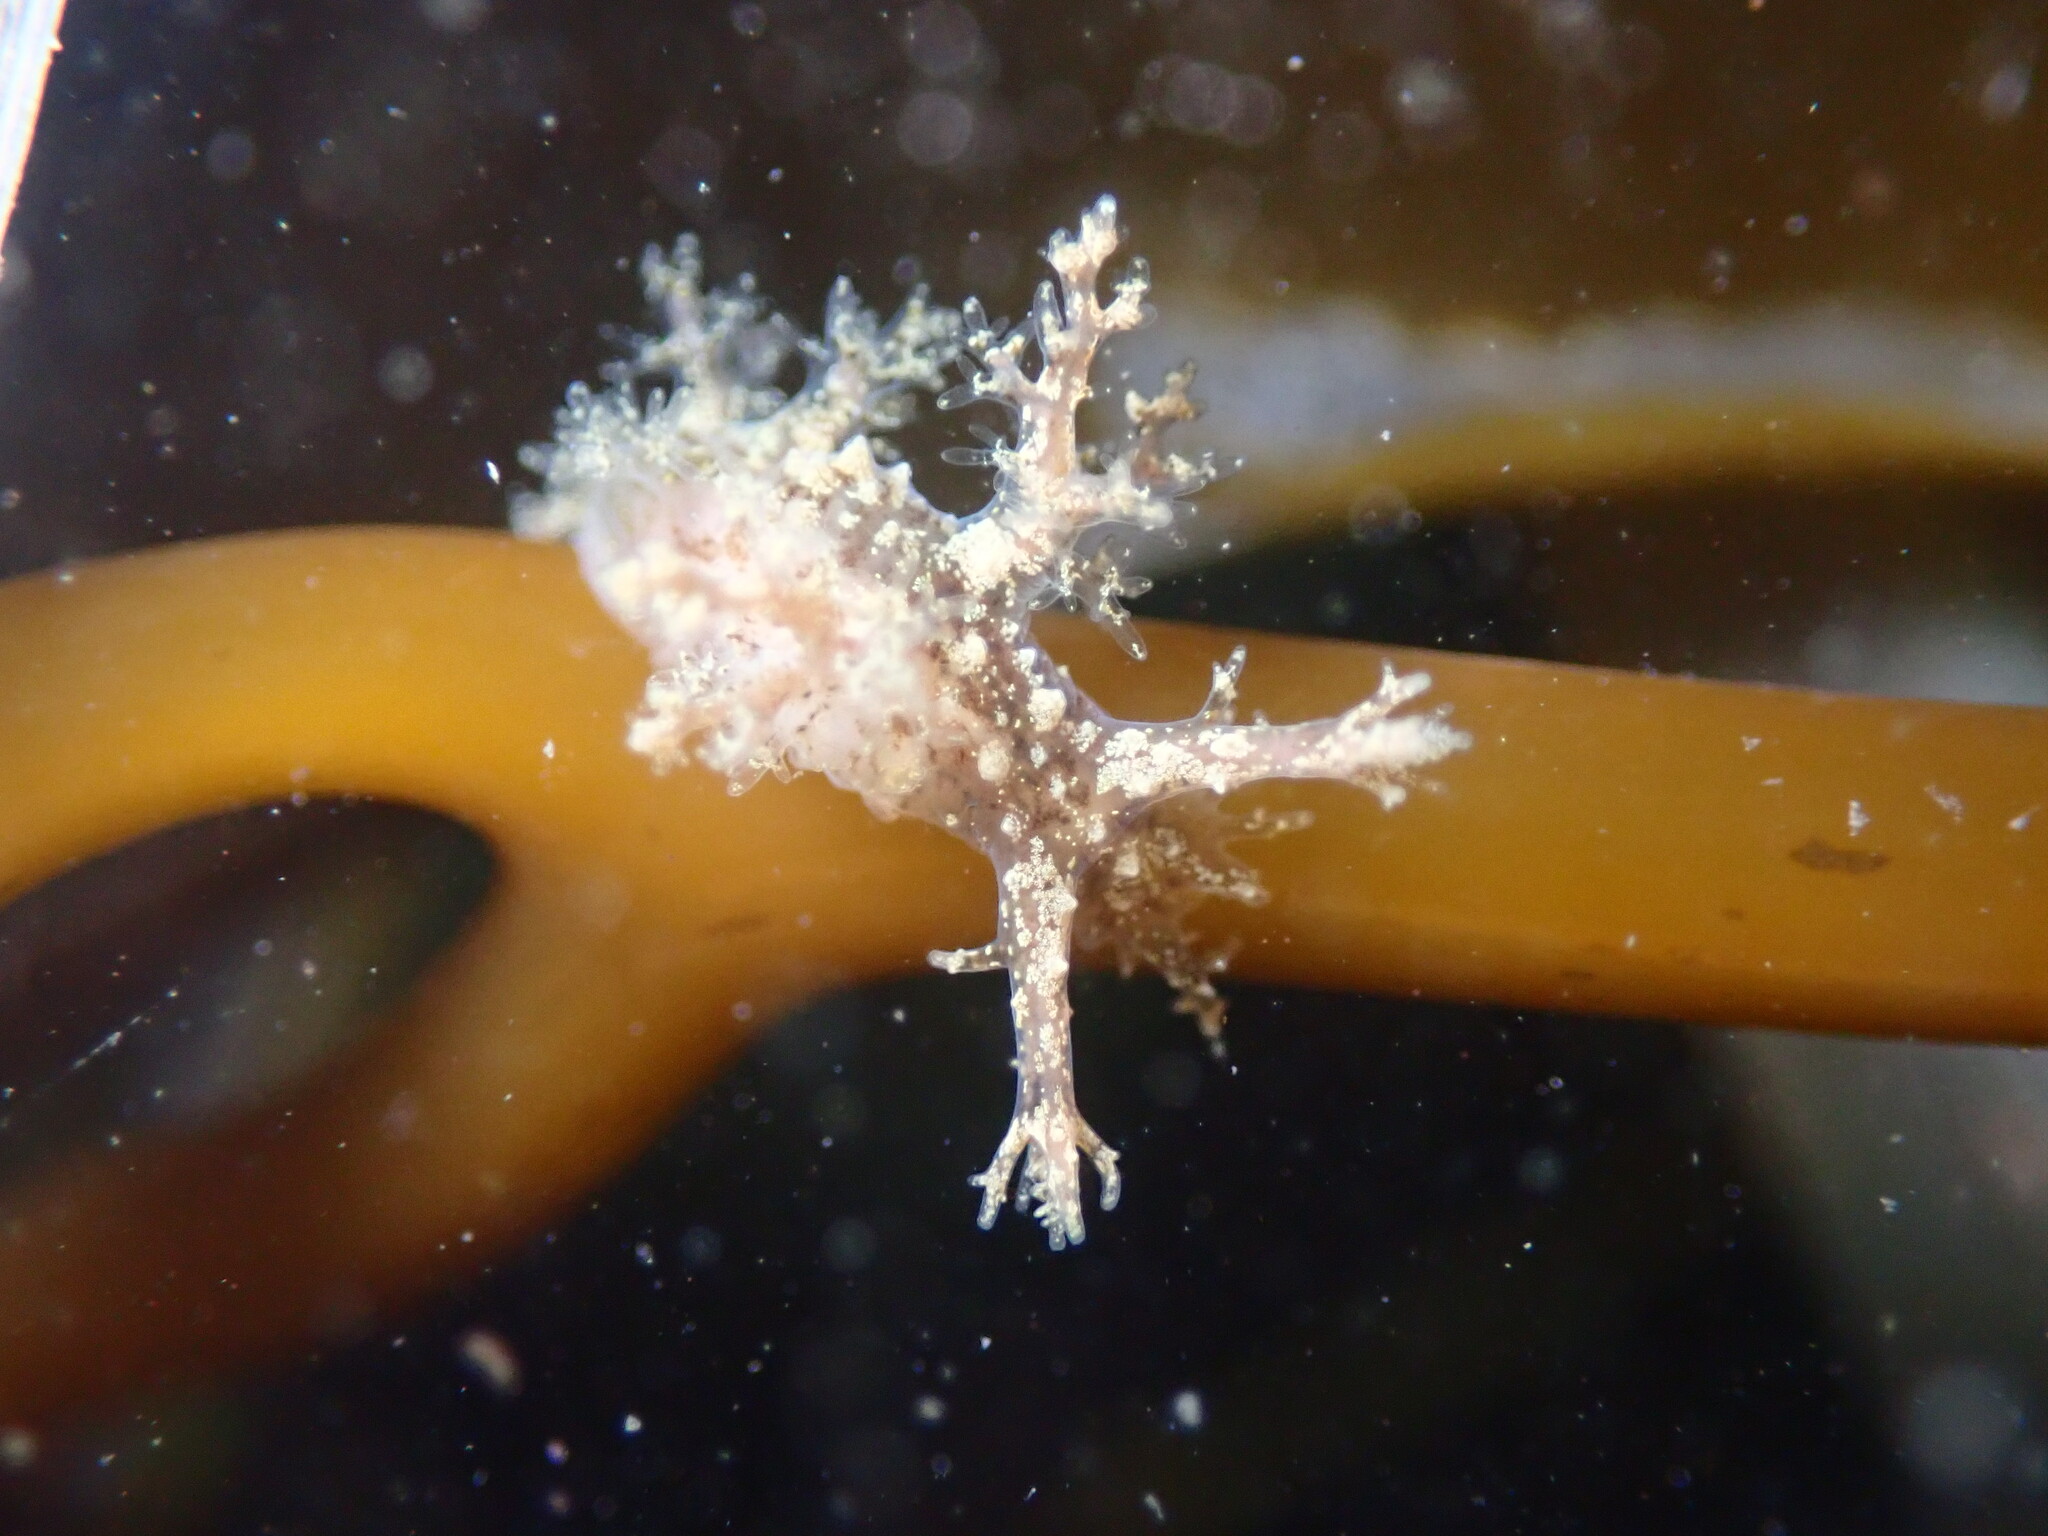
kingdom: Animalia
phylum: Mollusca
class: Gastropoda
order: Nudibranchia
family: Dendronotidae
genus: Dendronotus
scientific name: Dendronotus venustus
